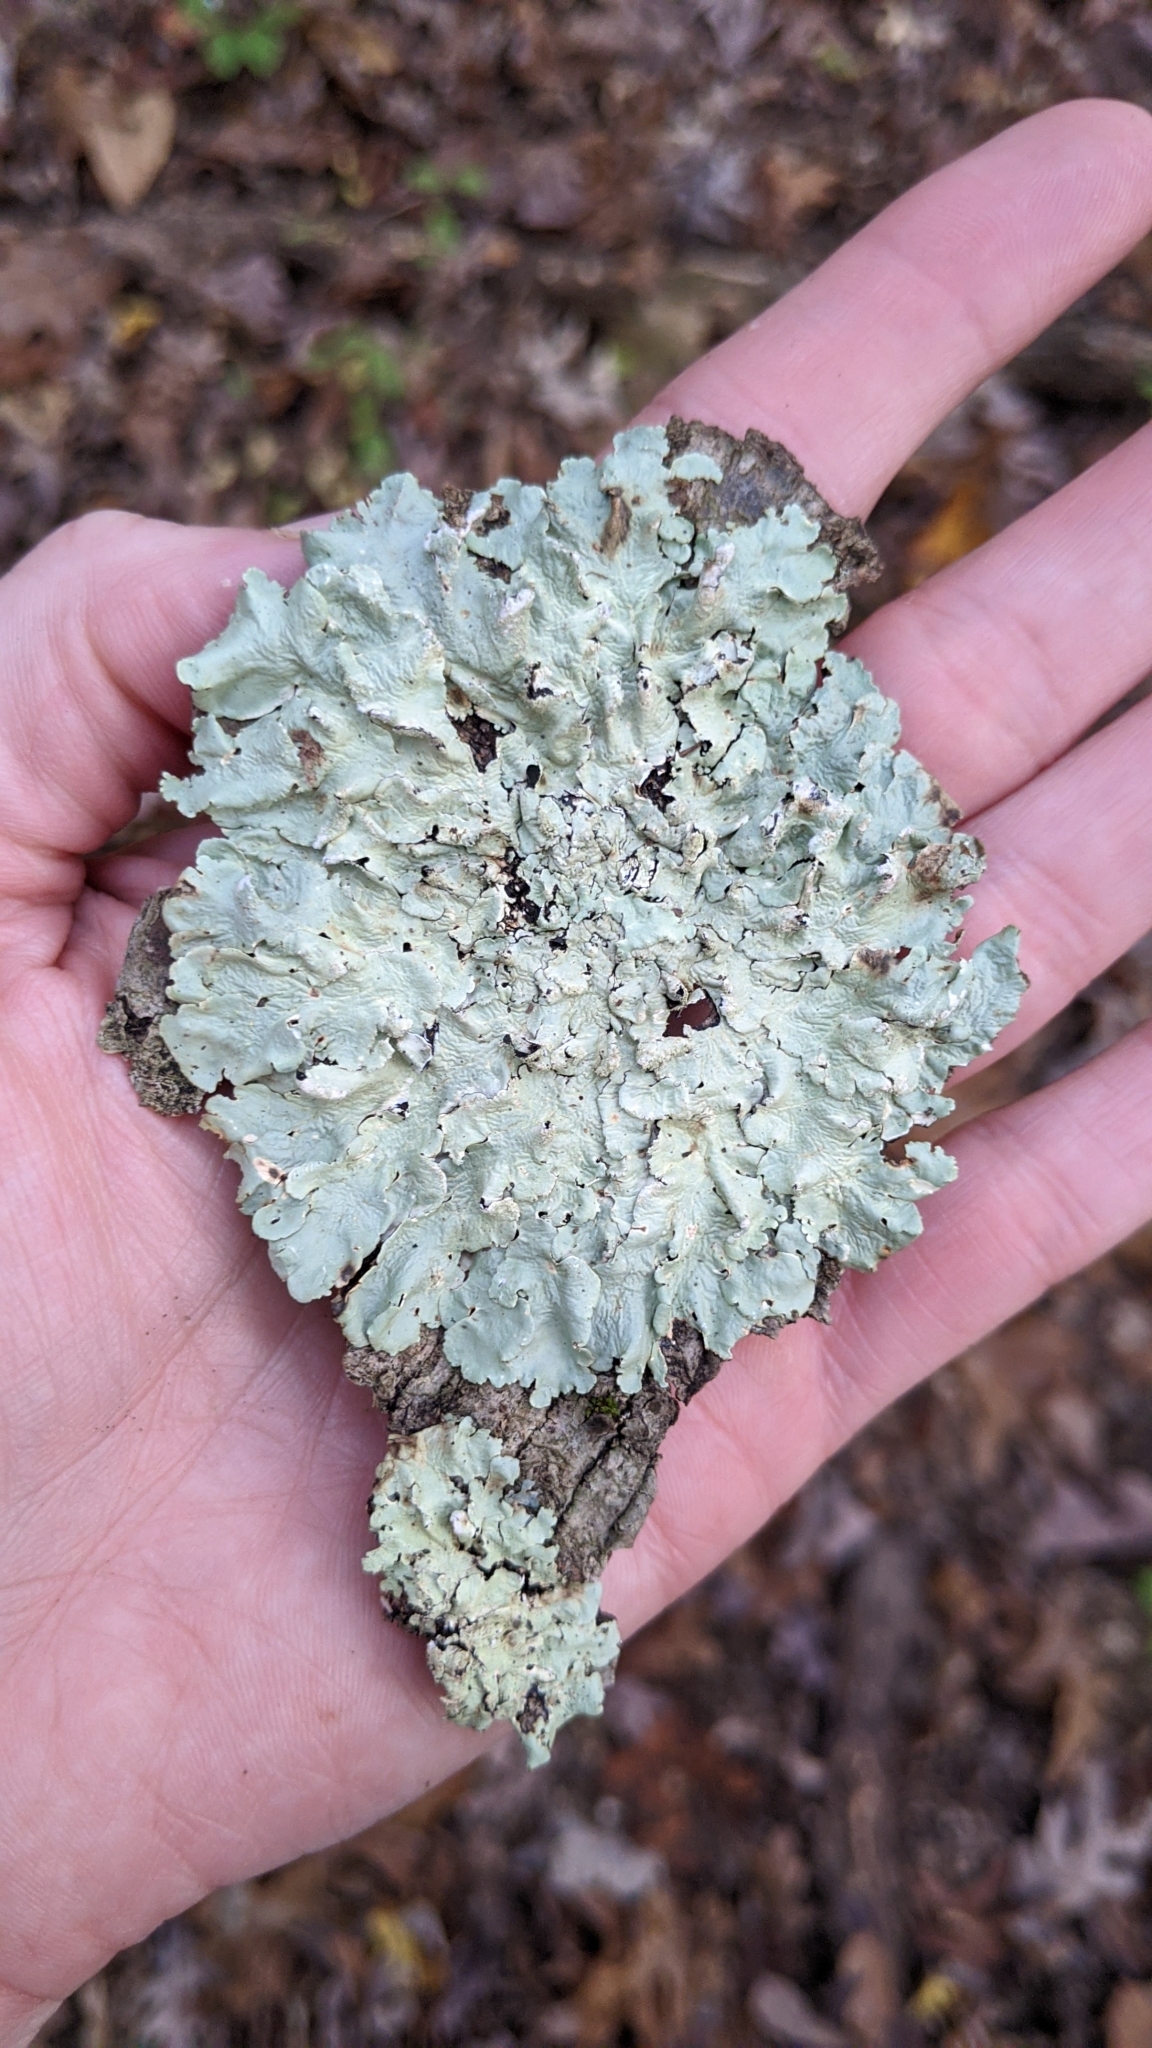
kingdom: Fungi
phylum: Ascomycota
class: Lecanoromycetes
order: Lecanorales
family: Parmeliaceae
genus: Flavoparmelia
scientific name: Flavoparmelia caperata
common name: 40-mile per hour lichen
